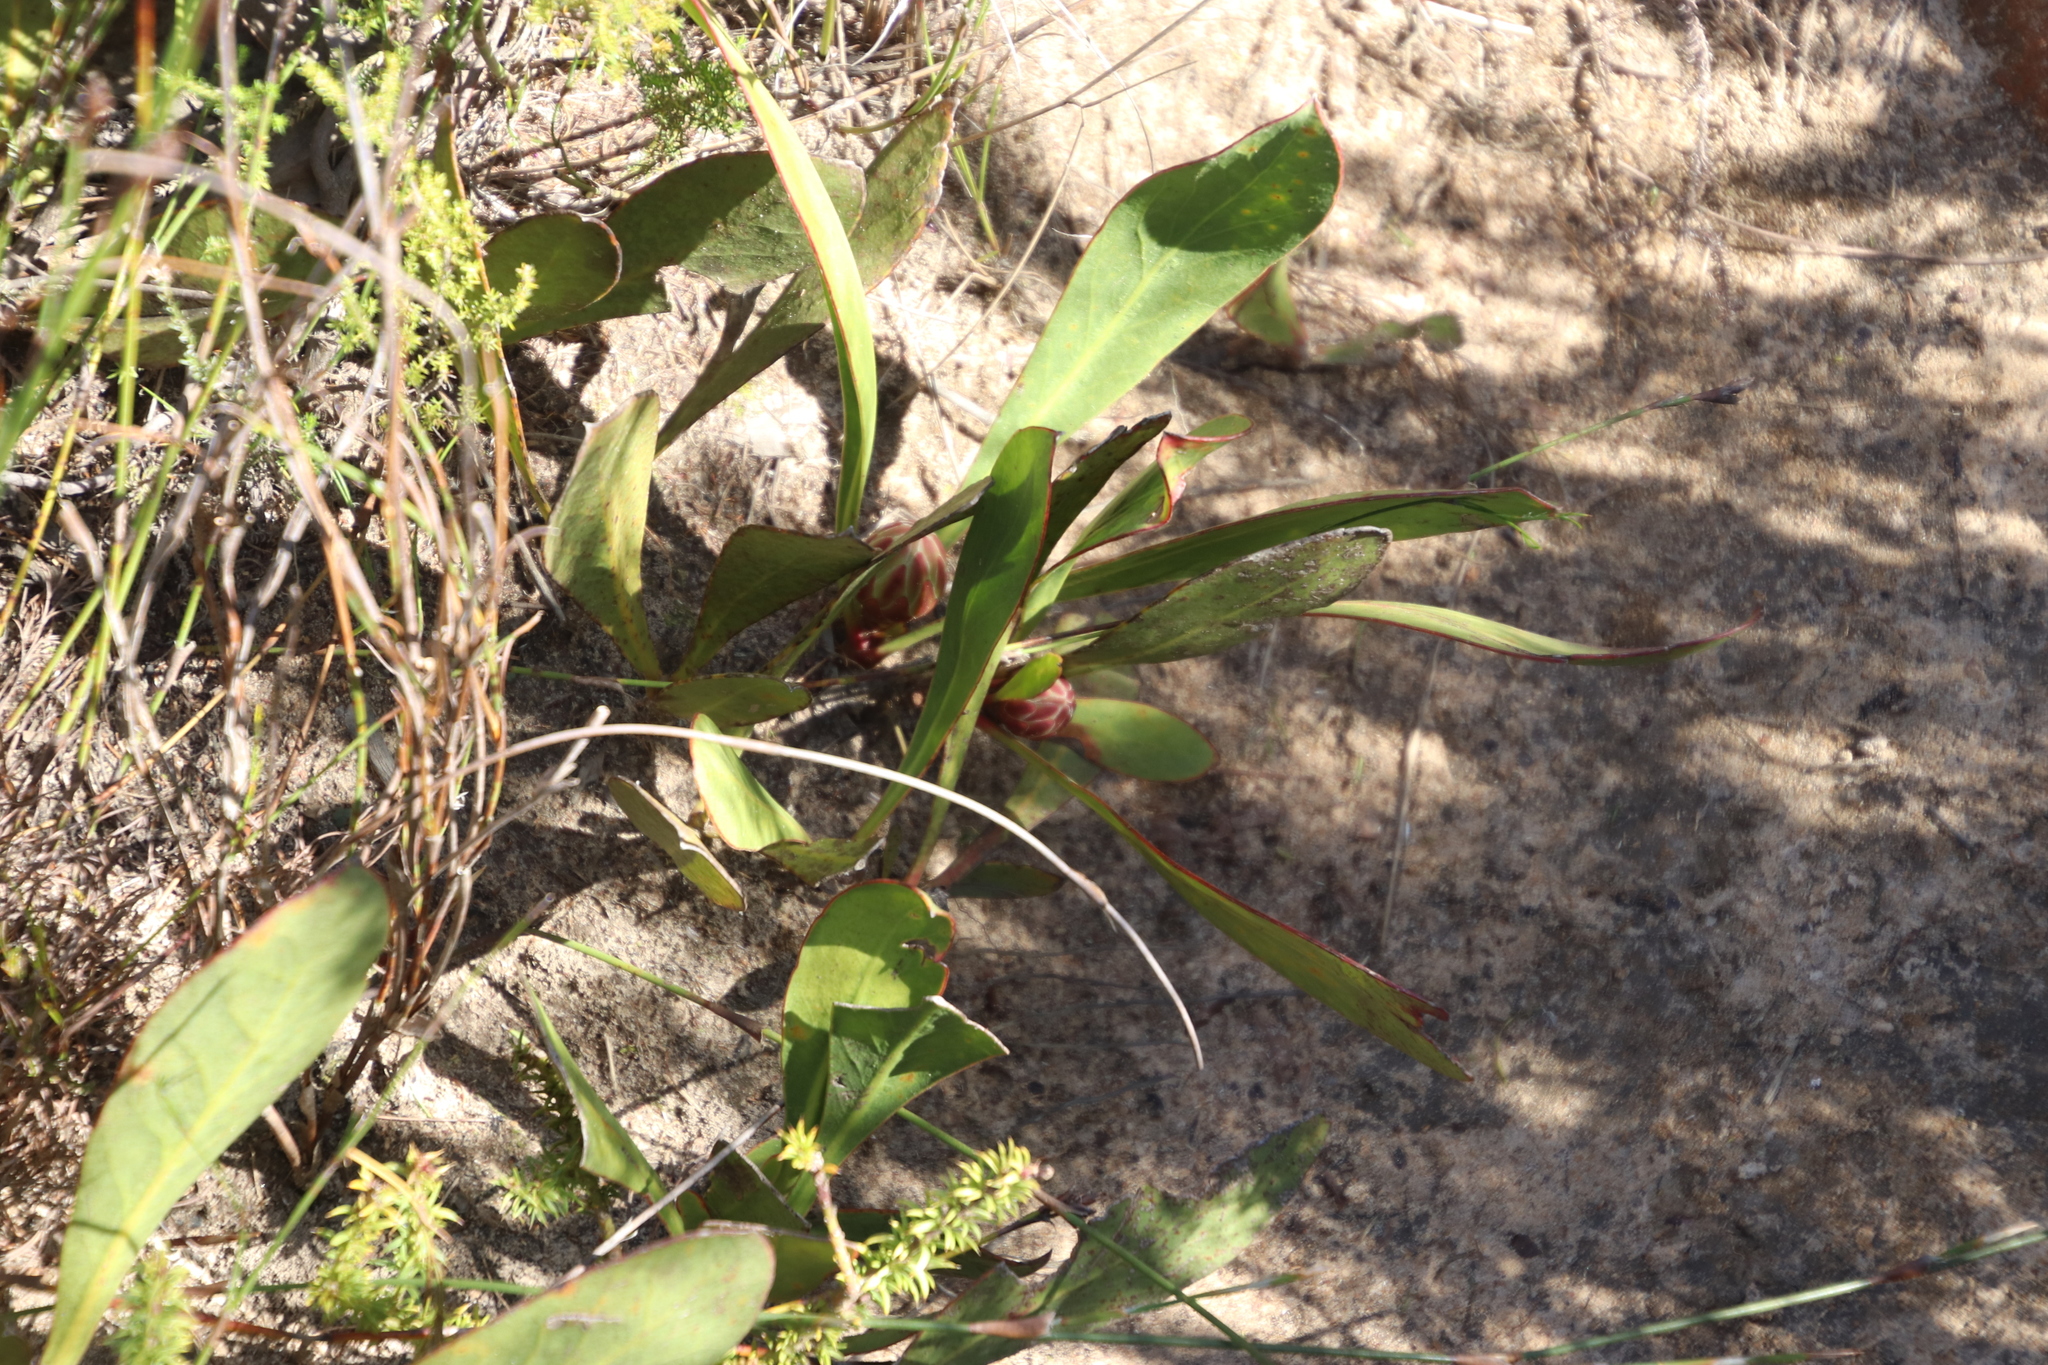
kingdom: Plantae
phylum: Tracheophyta
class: Magnoliopsida
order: Proteales
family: Proteaceae
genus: Protea
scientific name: Protea acaulos
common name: Common ground sugarbush
